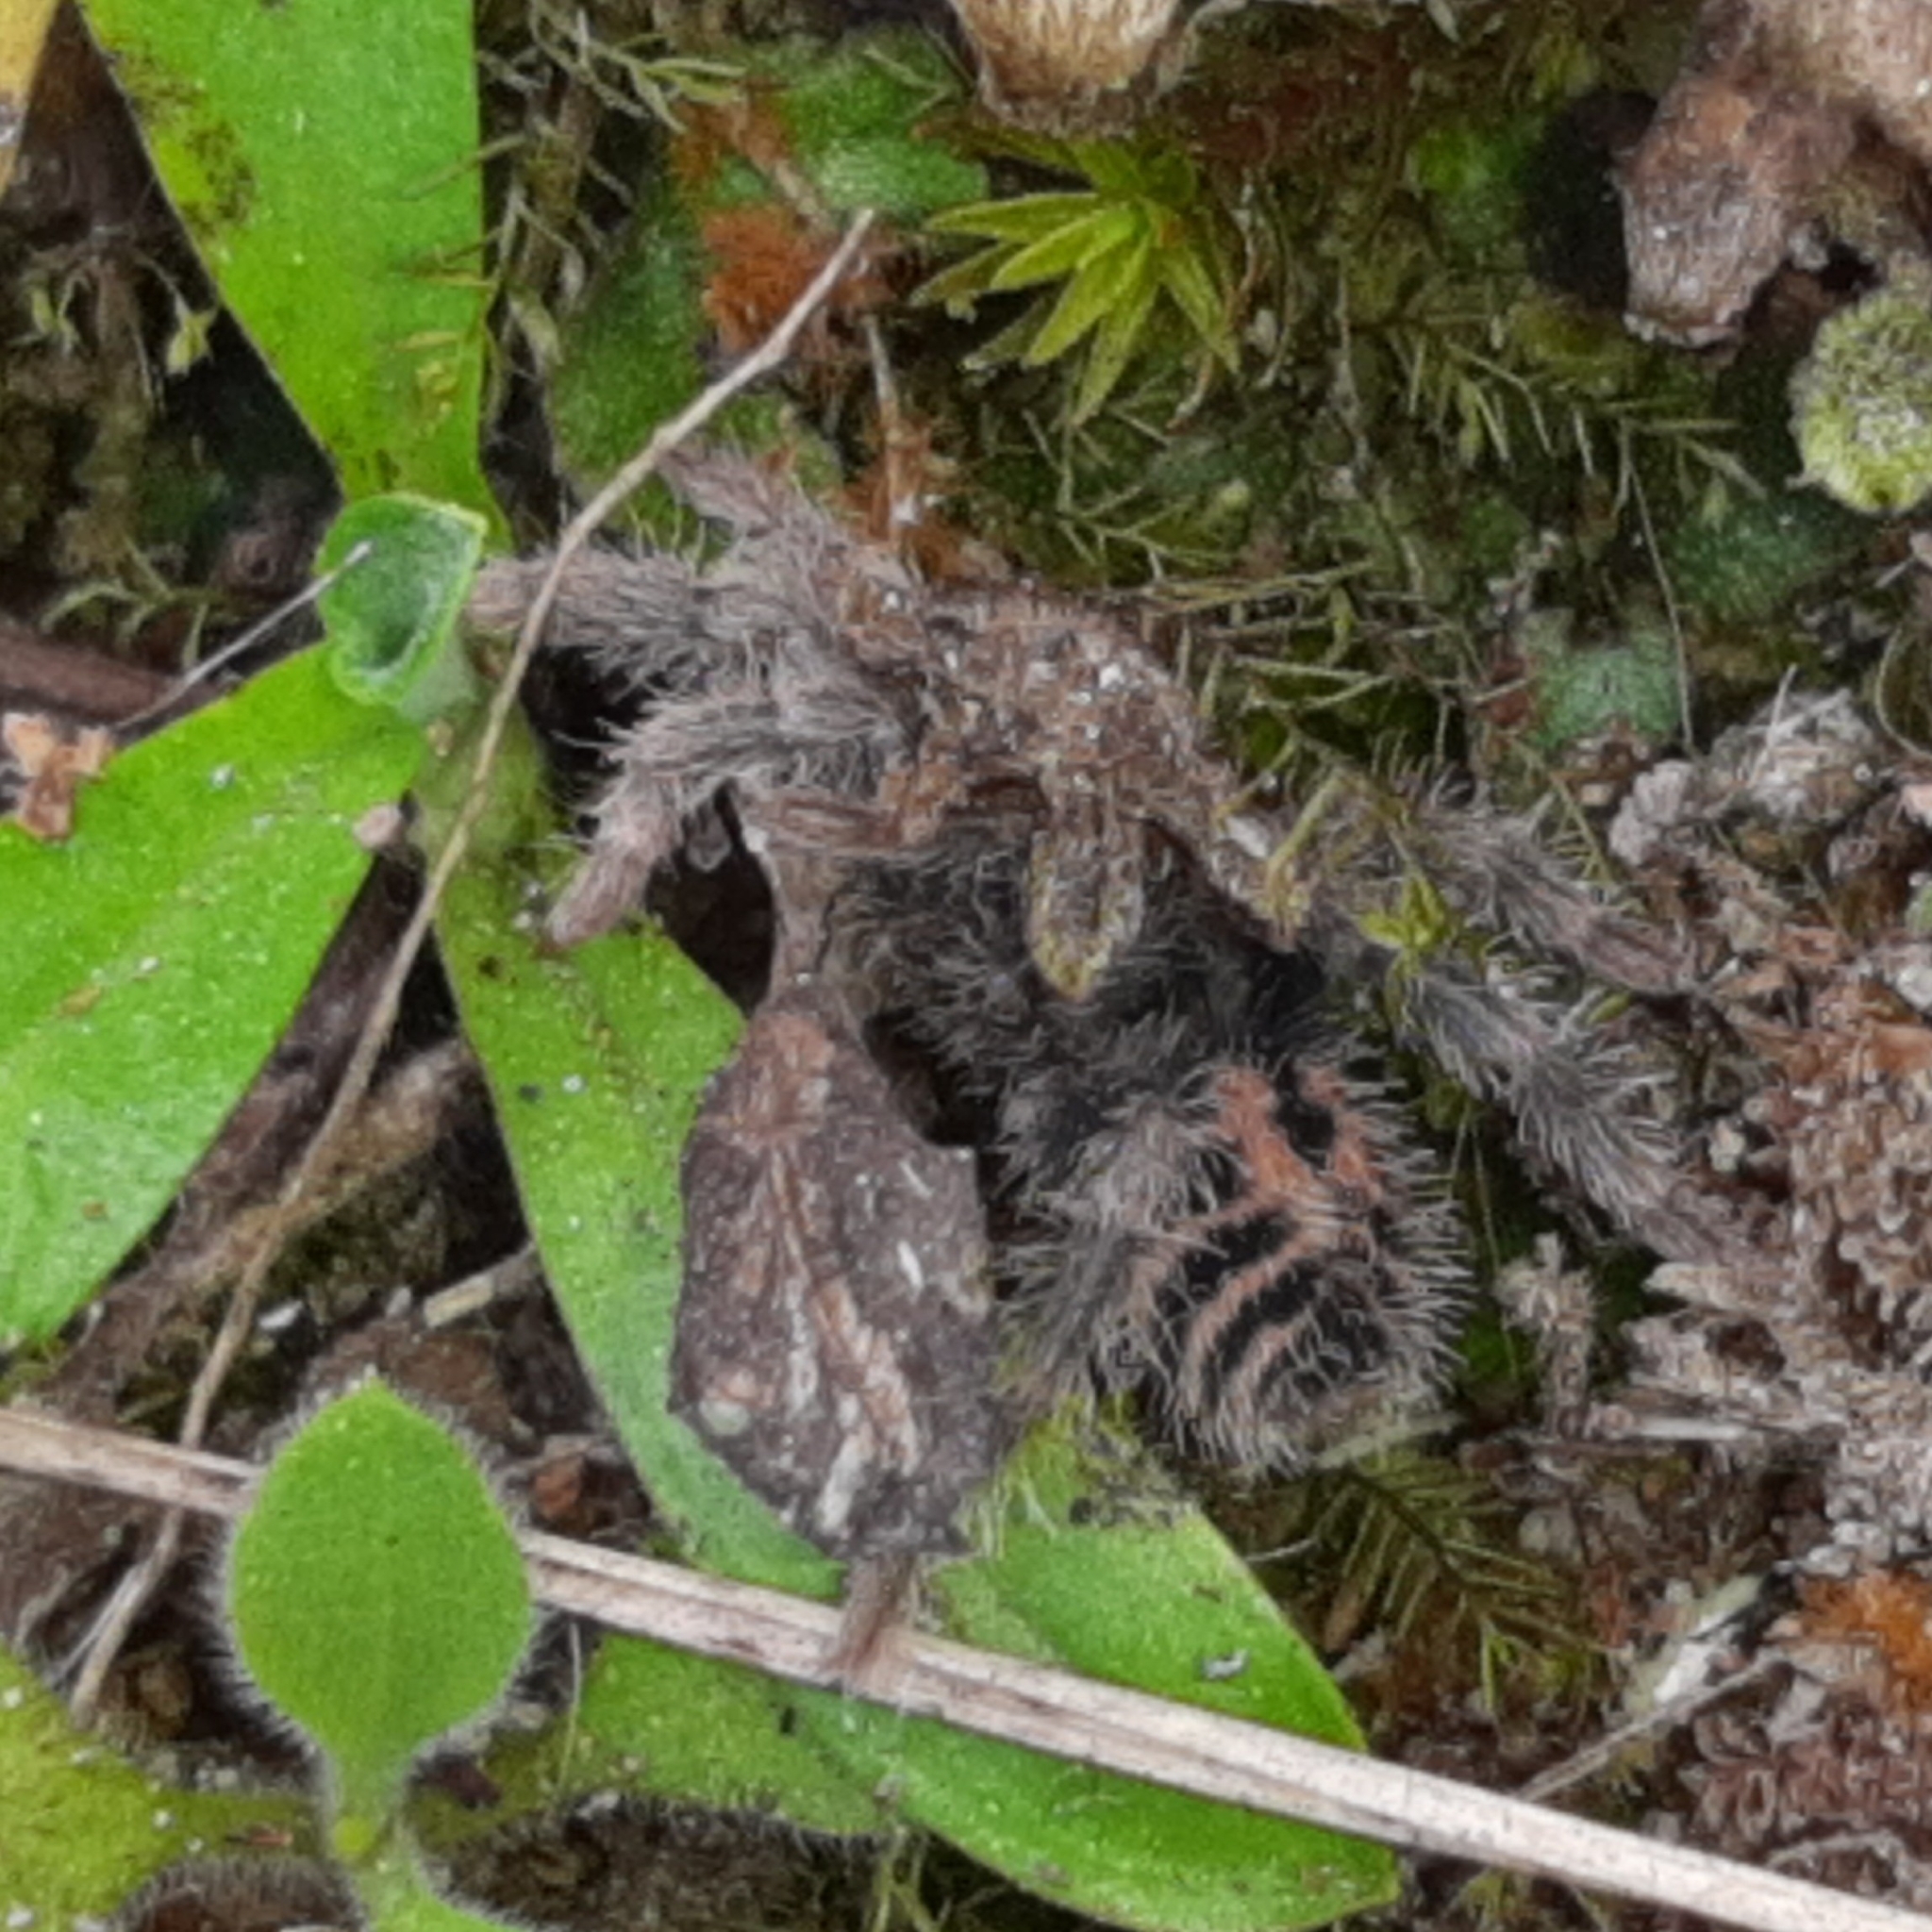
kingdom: Animalia
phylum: Arthropoda
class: Arachnida
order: Araneae
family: Theraphosidae
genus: Davus
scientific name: Davus fasciatus
